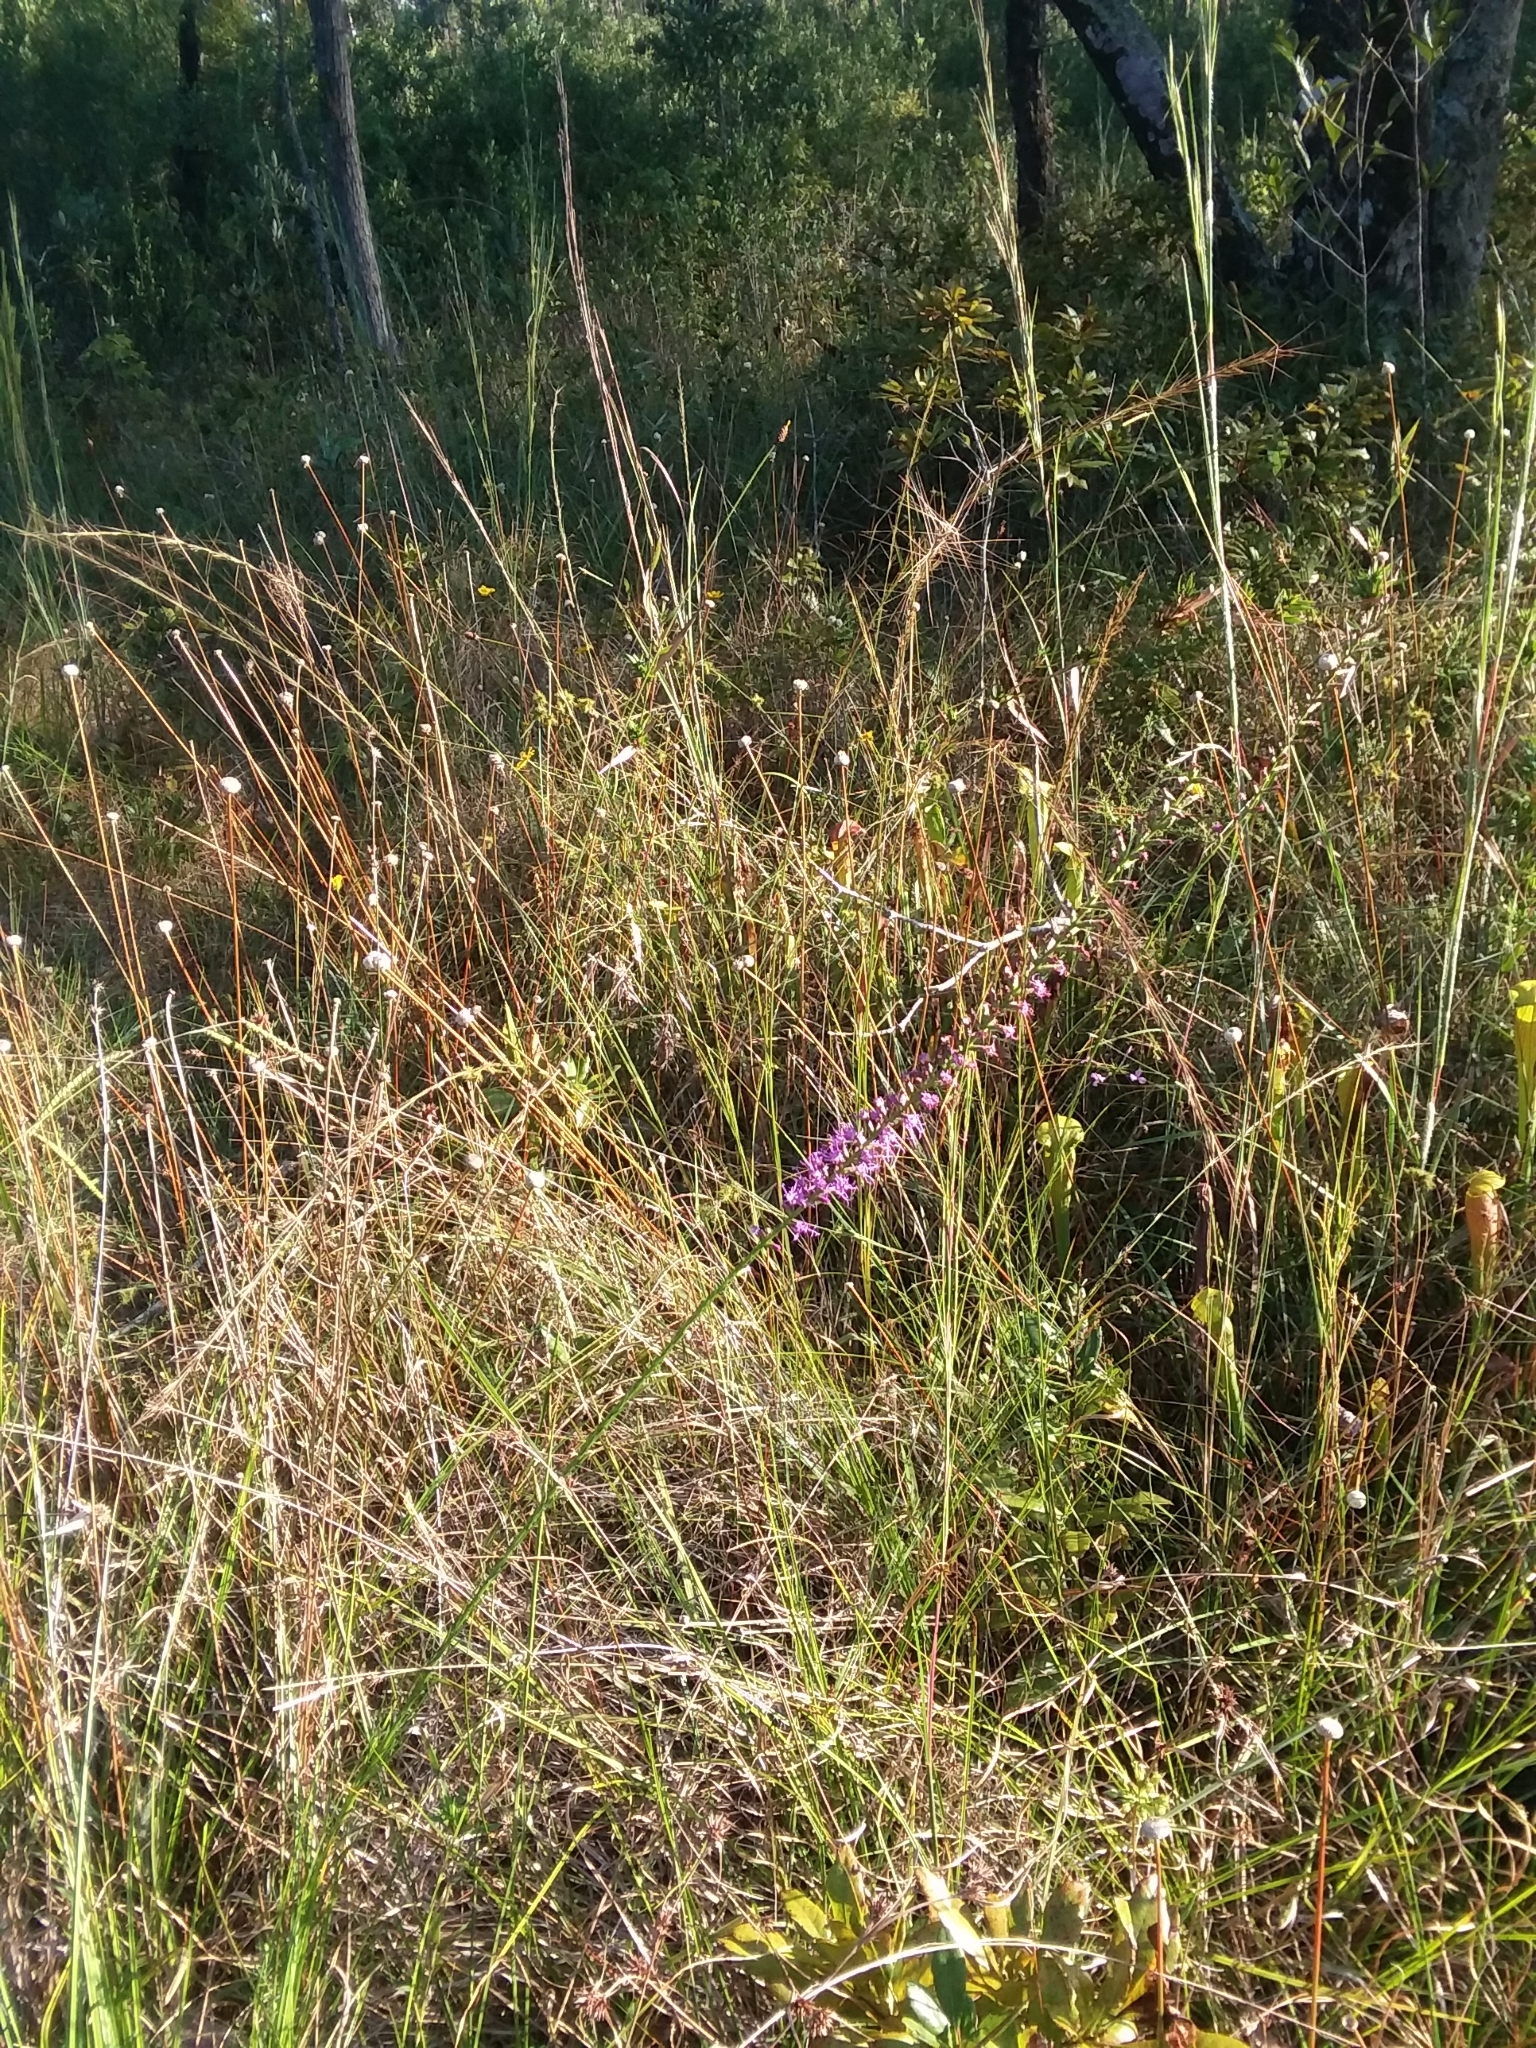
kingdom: Plantae
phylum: Tracheophyta
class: Magnoliopsida
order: Asterales
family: Asteraceae
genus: Liatris
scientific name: Liatris spicata
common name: Florist gayfeather
